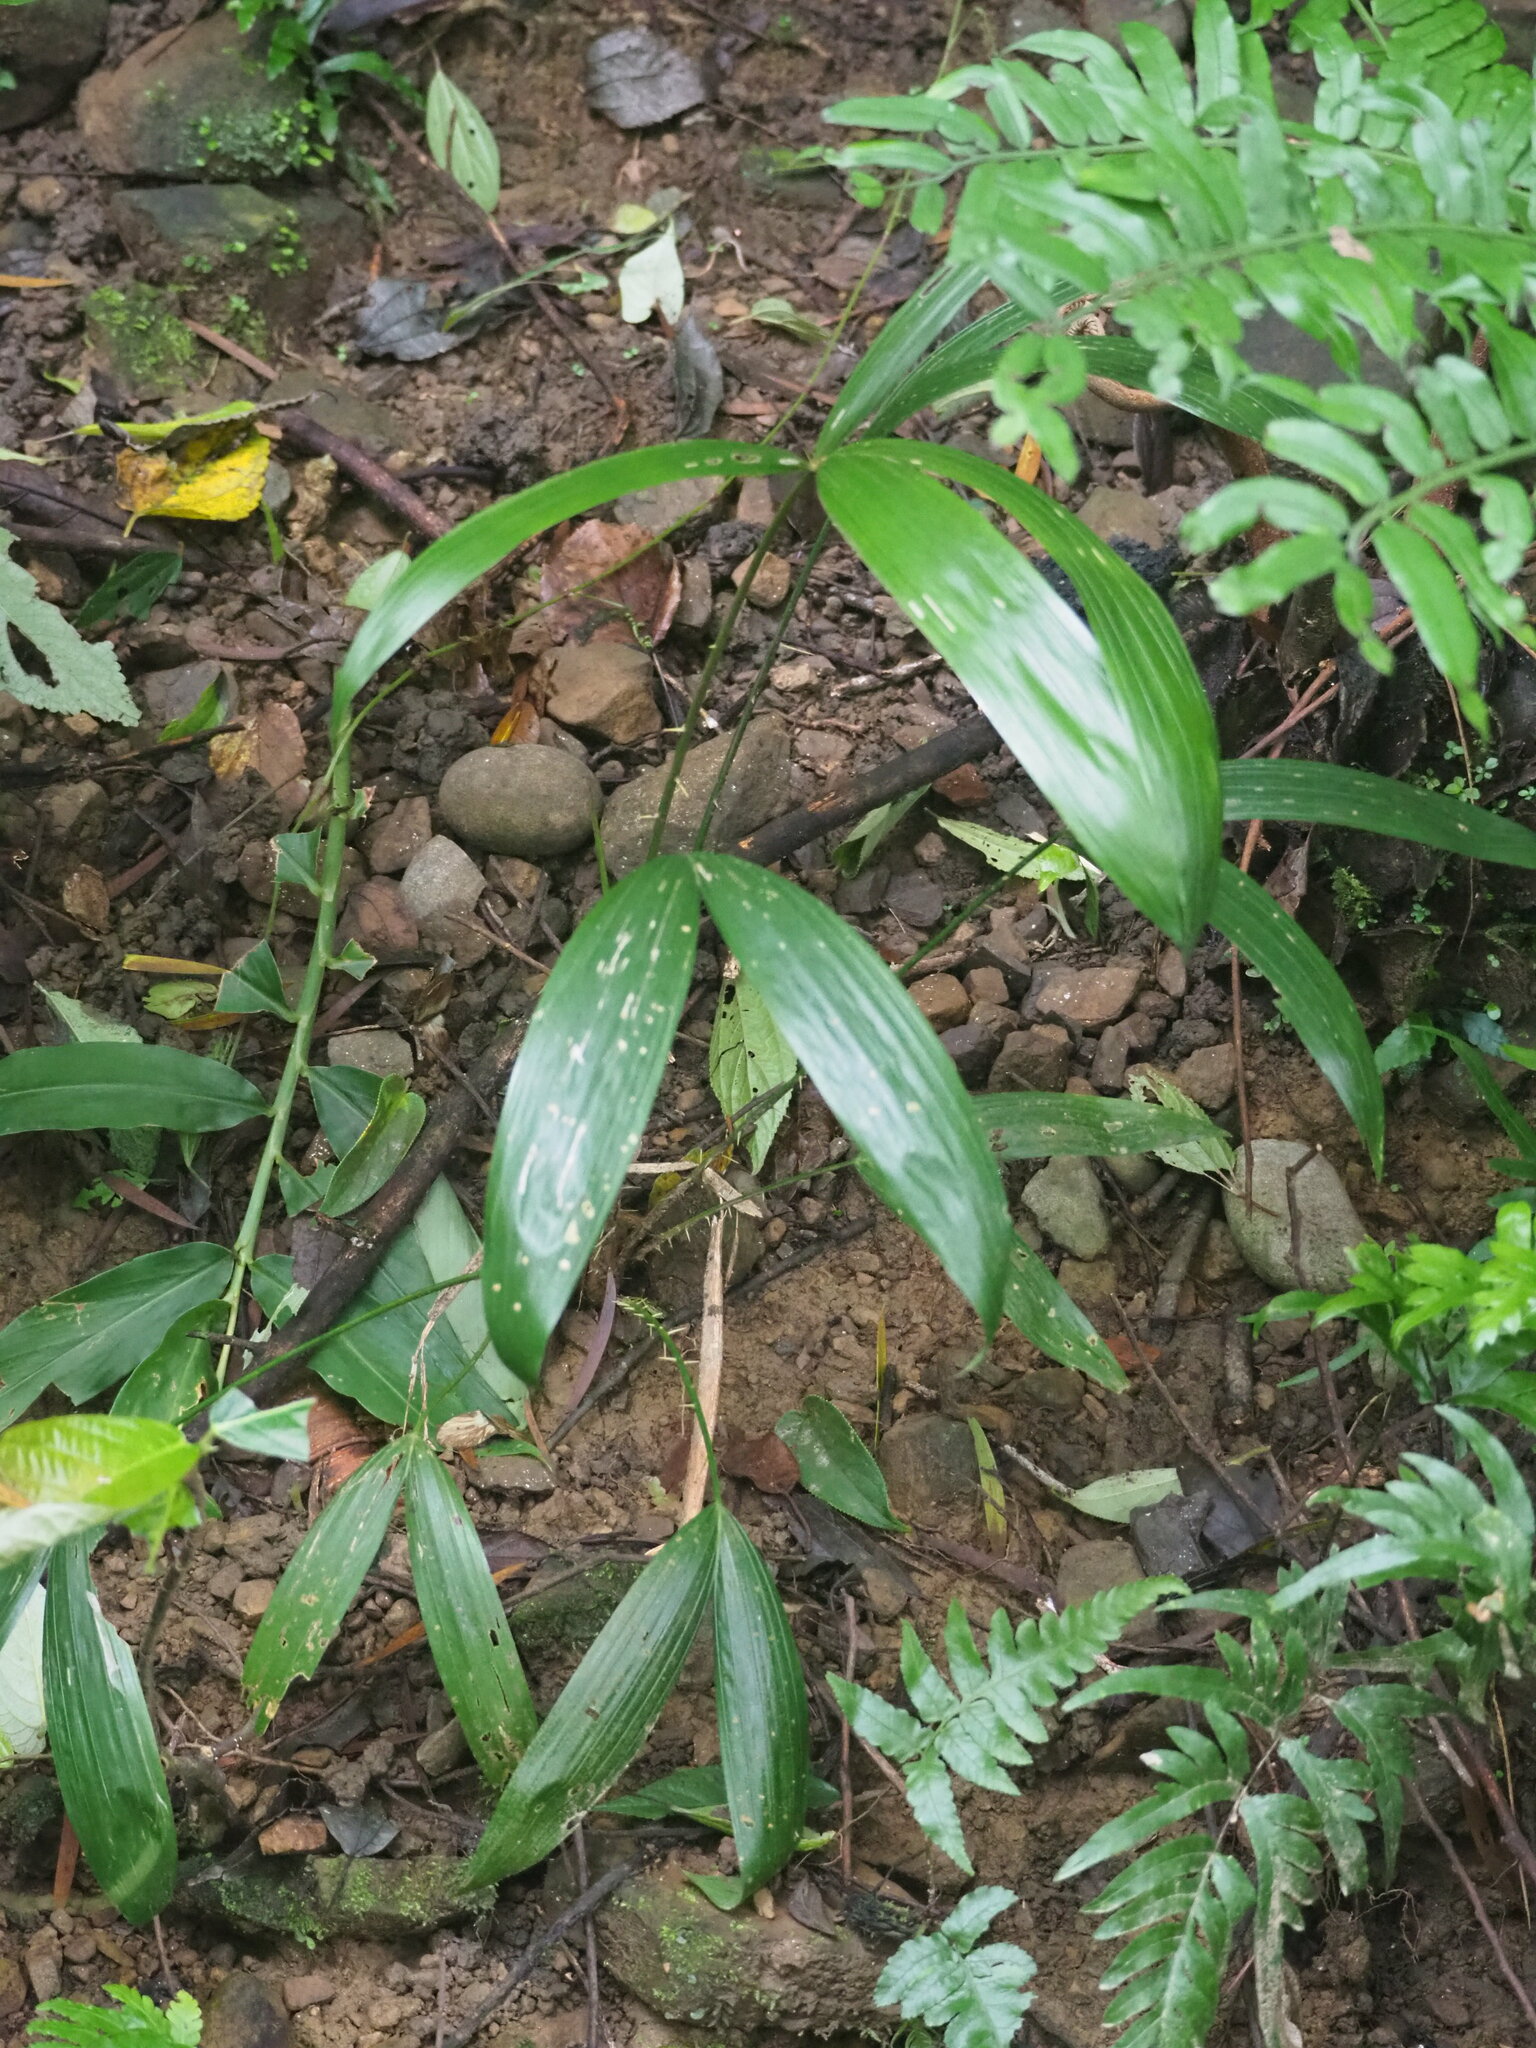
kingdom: Plantae
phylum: Tracheophyta
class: Liliopsida
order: Arecales
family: Arecaceae
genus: Calamus
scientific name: Calamus formosanus
